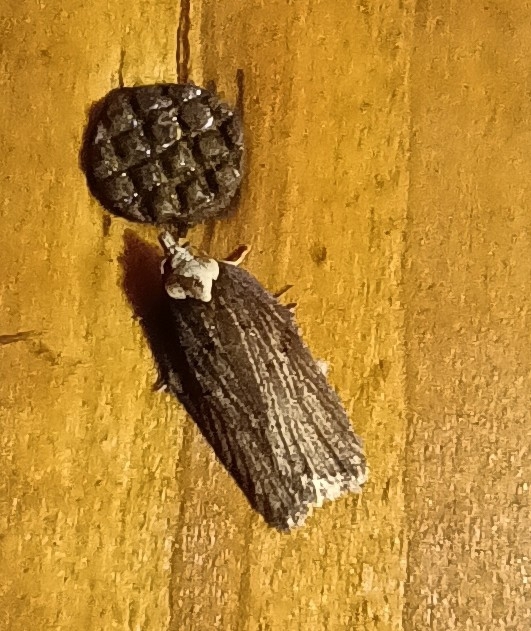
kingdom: Animalia
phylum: Arthropoda
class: Insecta
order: Lepidoptera
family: Tortricidae
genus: Acleris
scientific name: Acleris hastiana
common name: Sallow button
